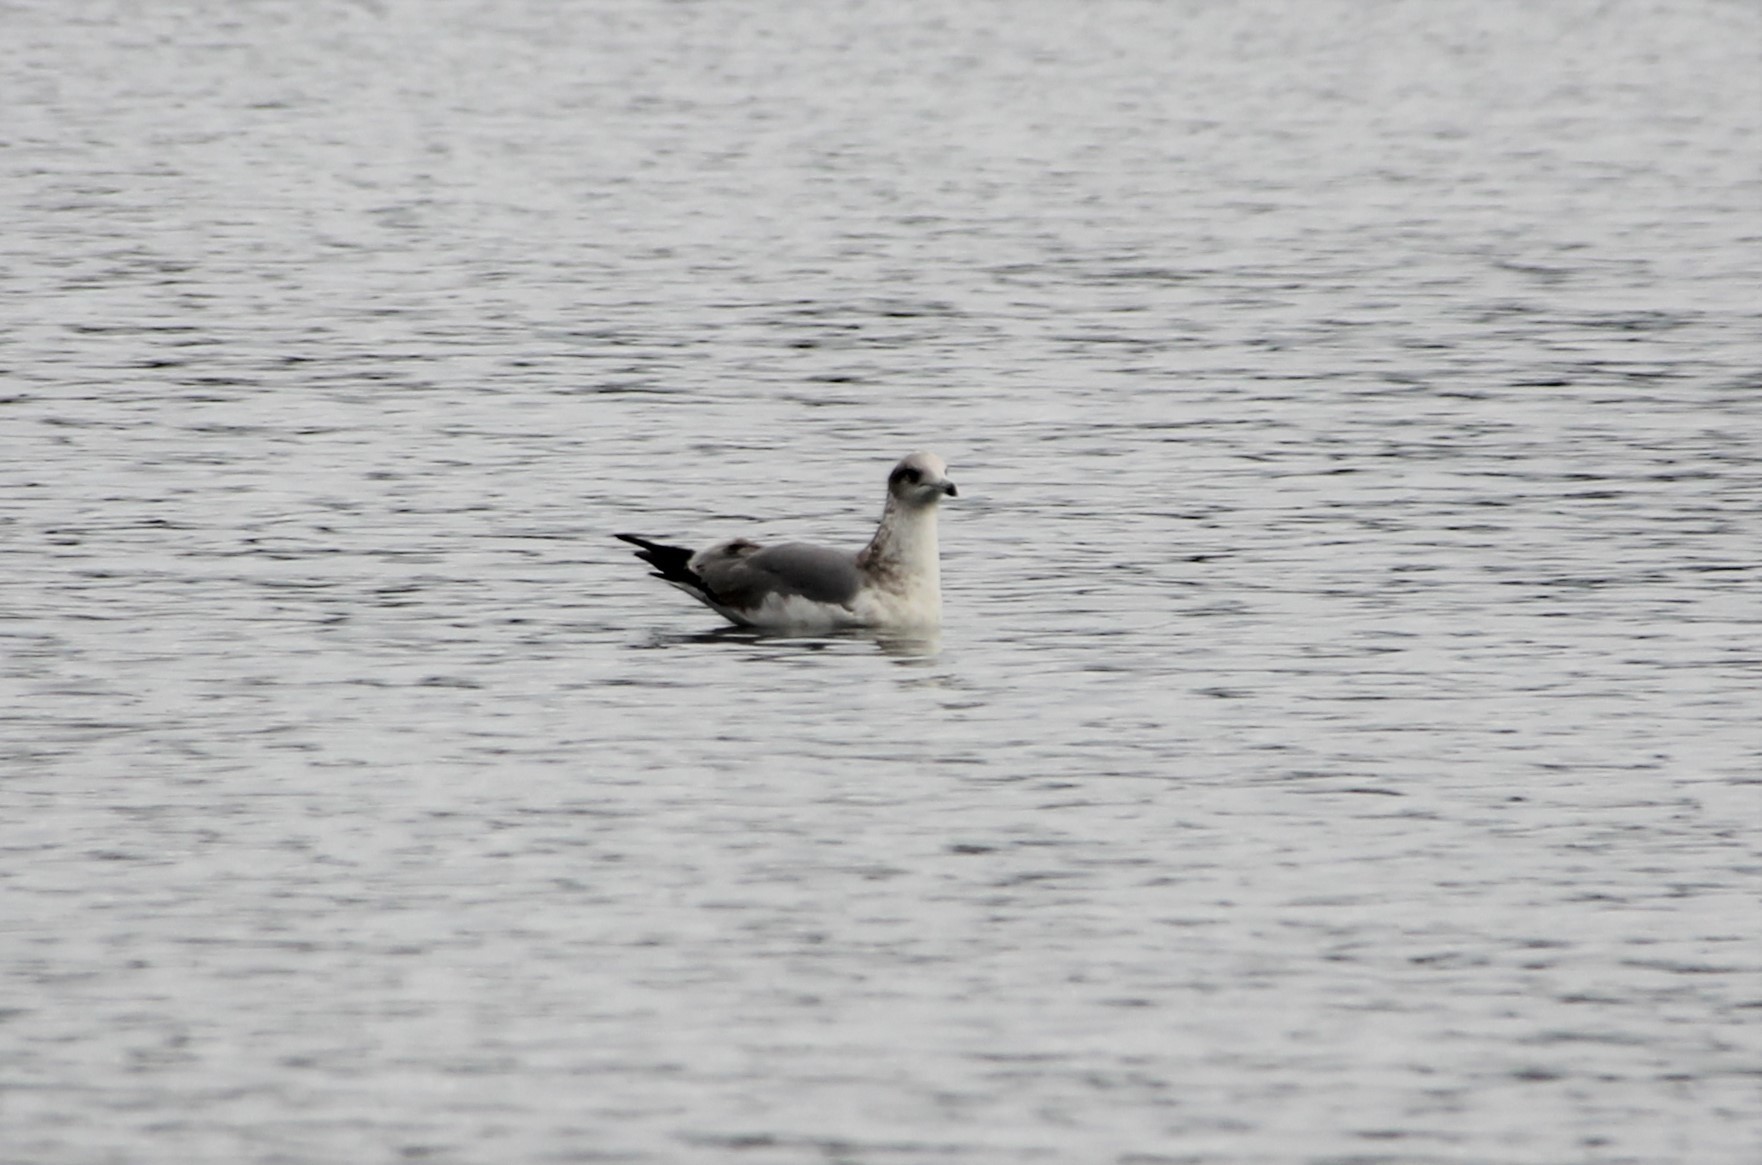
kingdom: Animalia
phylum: Chordata
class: Aves
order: Charadriiformes
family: Laridae
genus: Larus
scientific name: Larus californicus
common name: California gull
